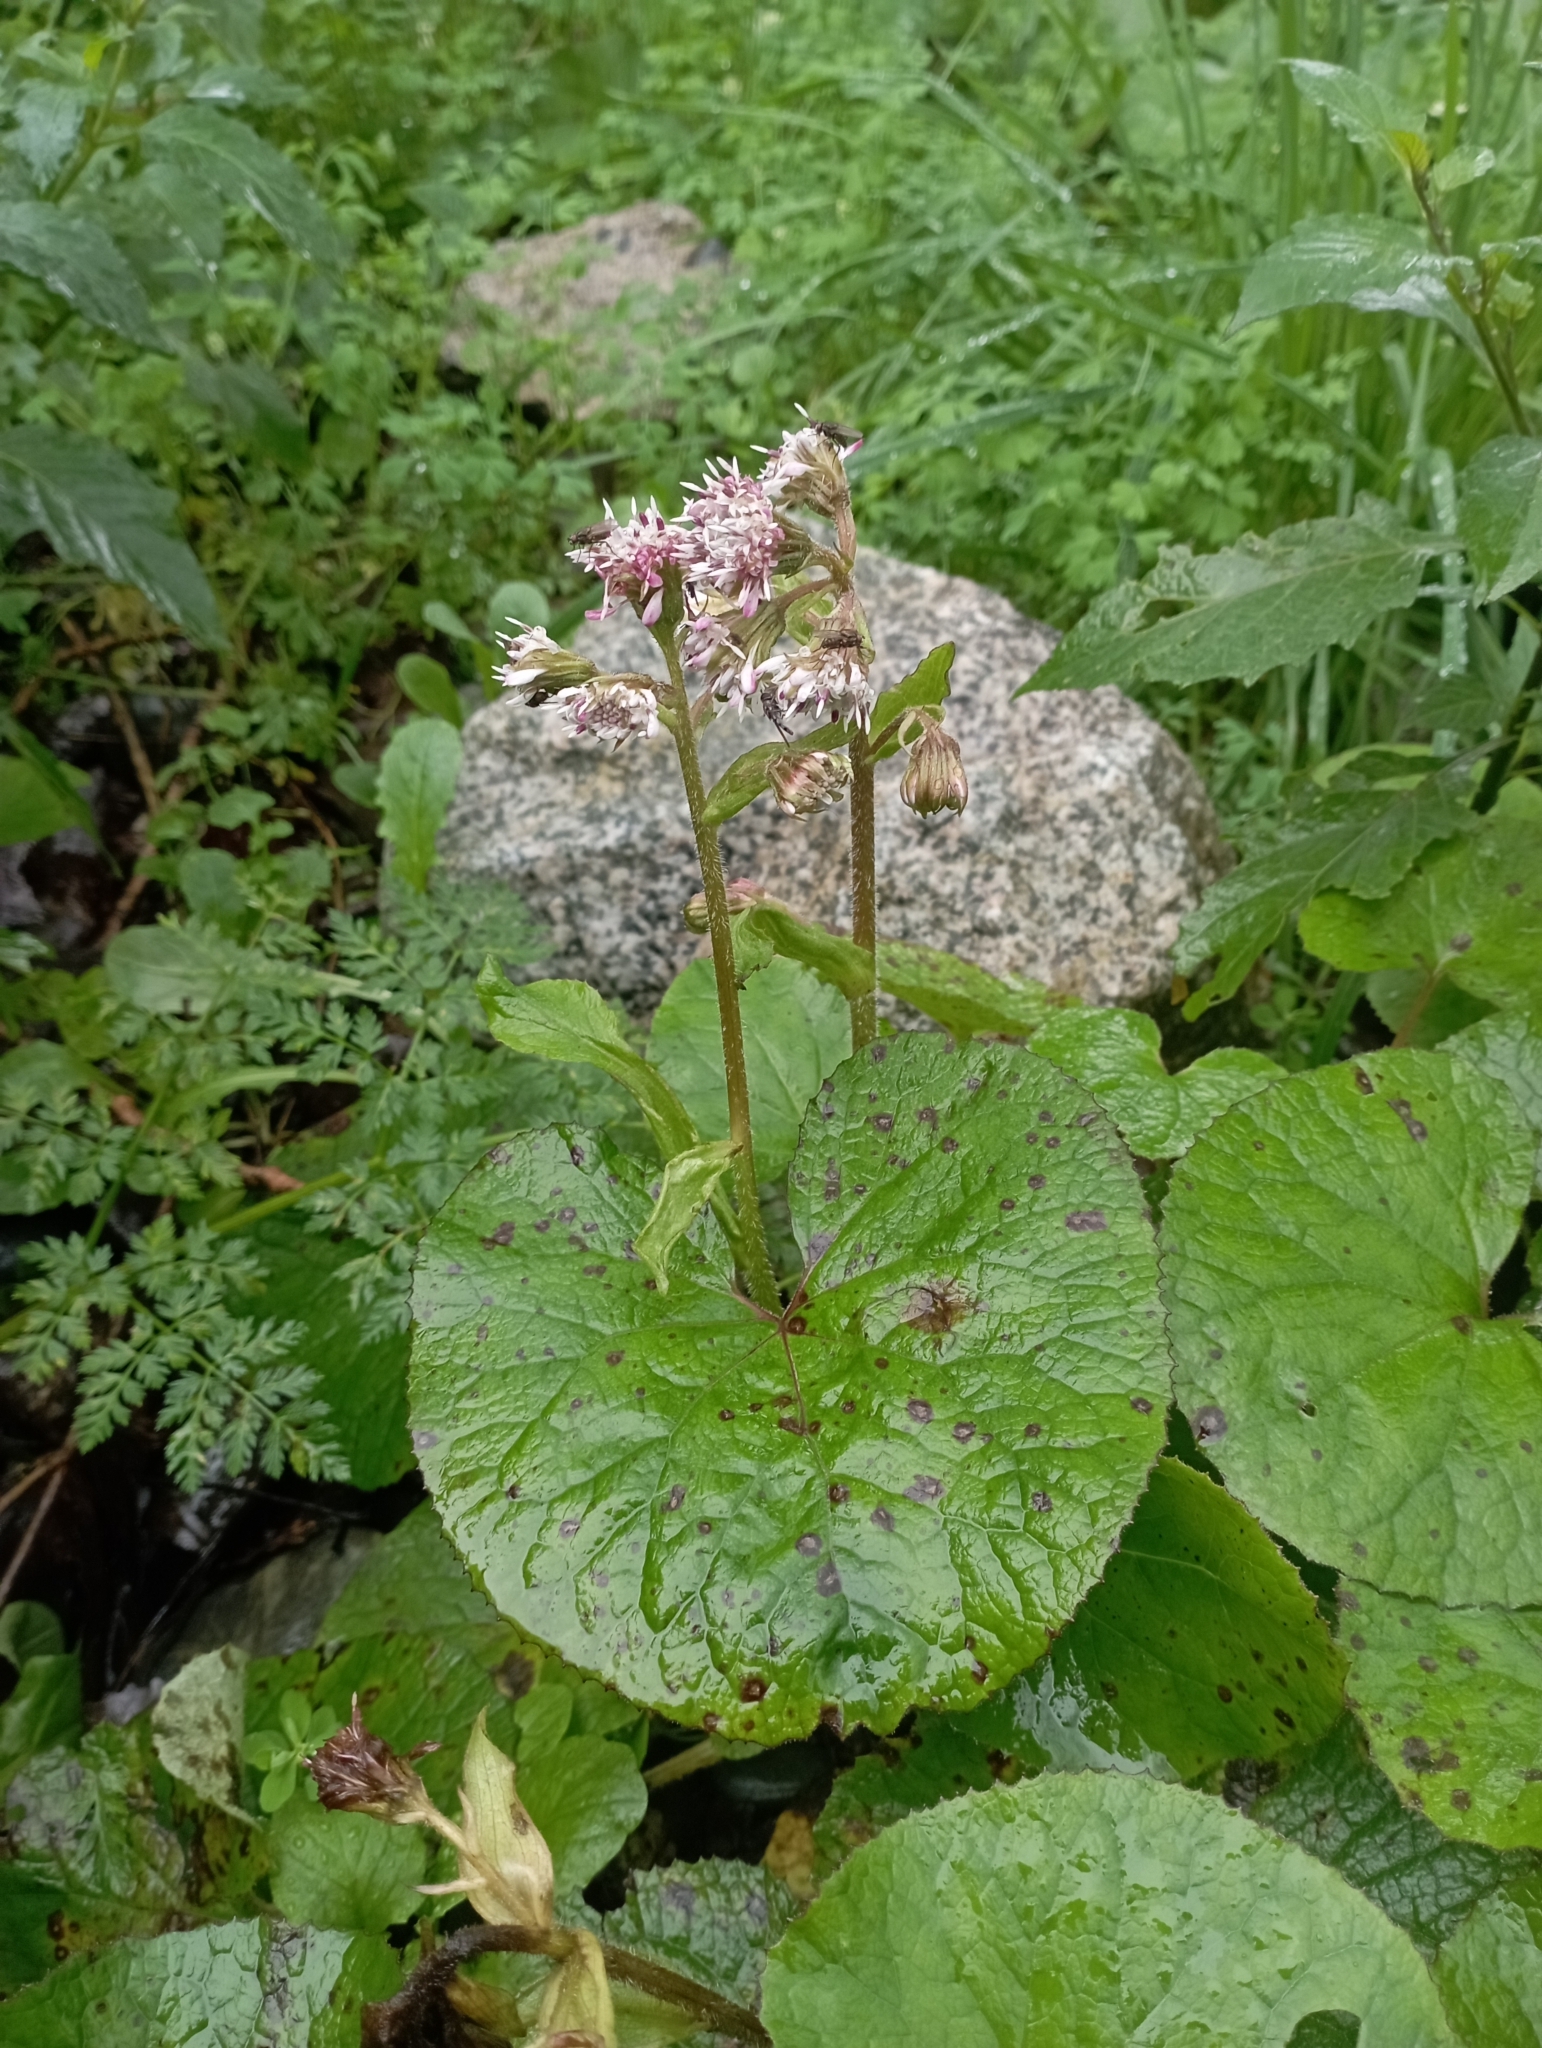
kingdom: Plantae
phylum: Tracheophyta
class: Magnoliopsida
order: Asterales
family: Asteraceae
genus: Petasites
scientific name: Petasites pyrenaicus
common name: Winter heliotrope
